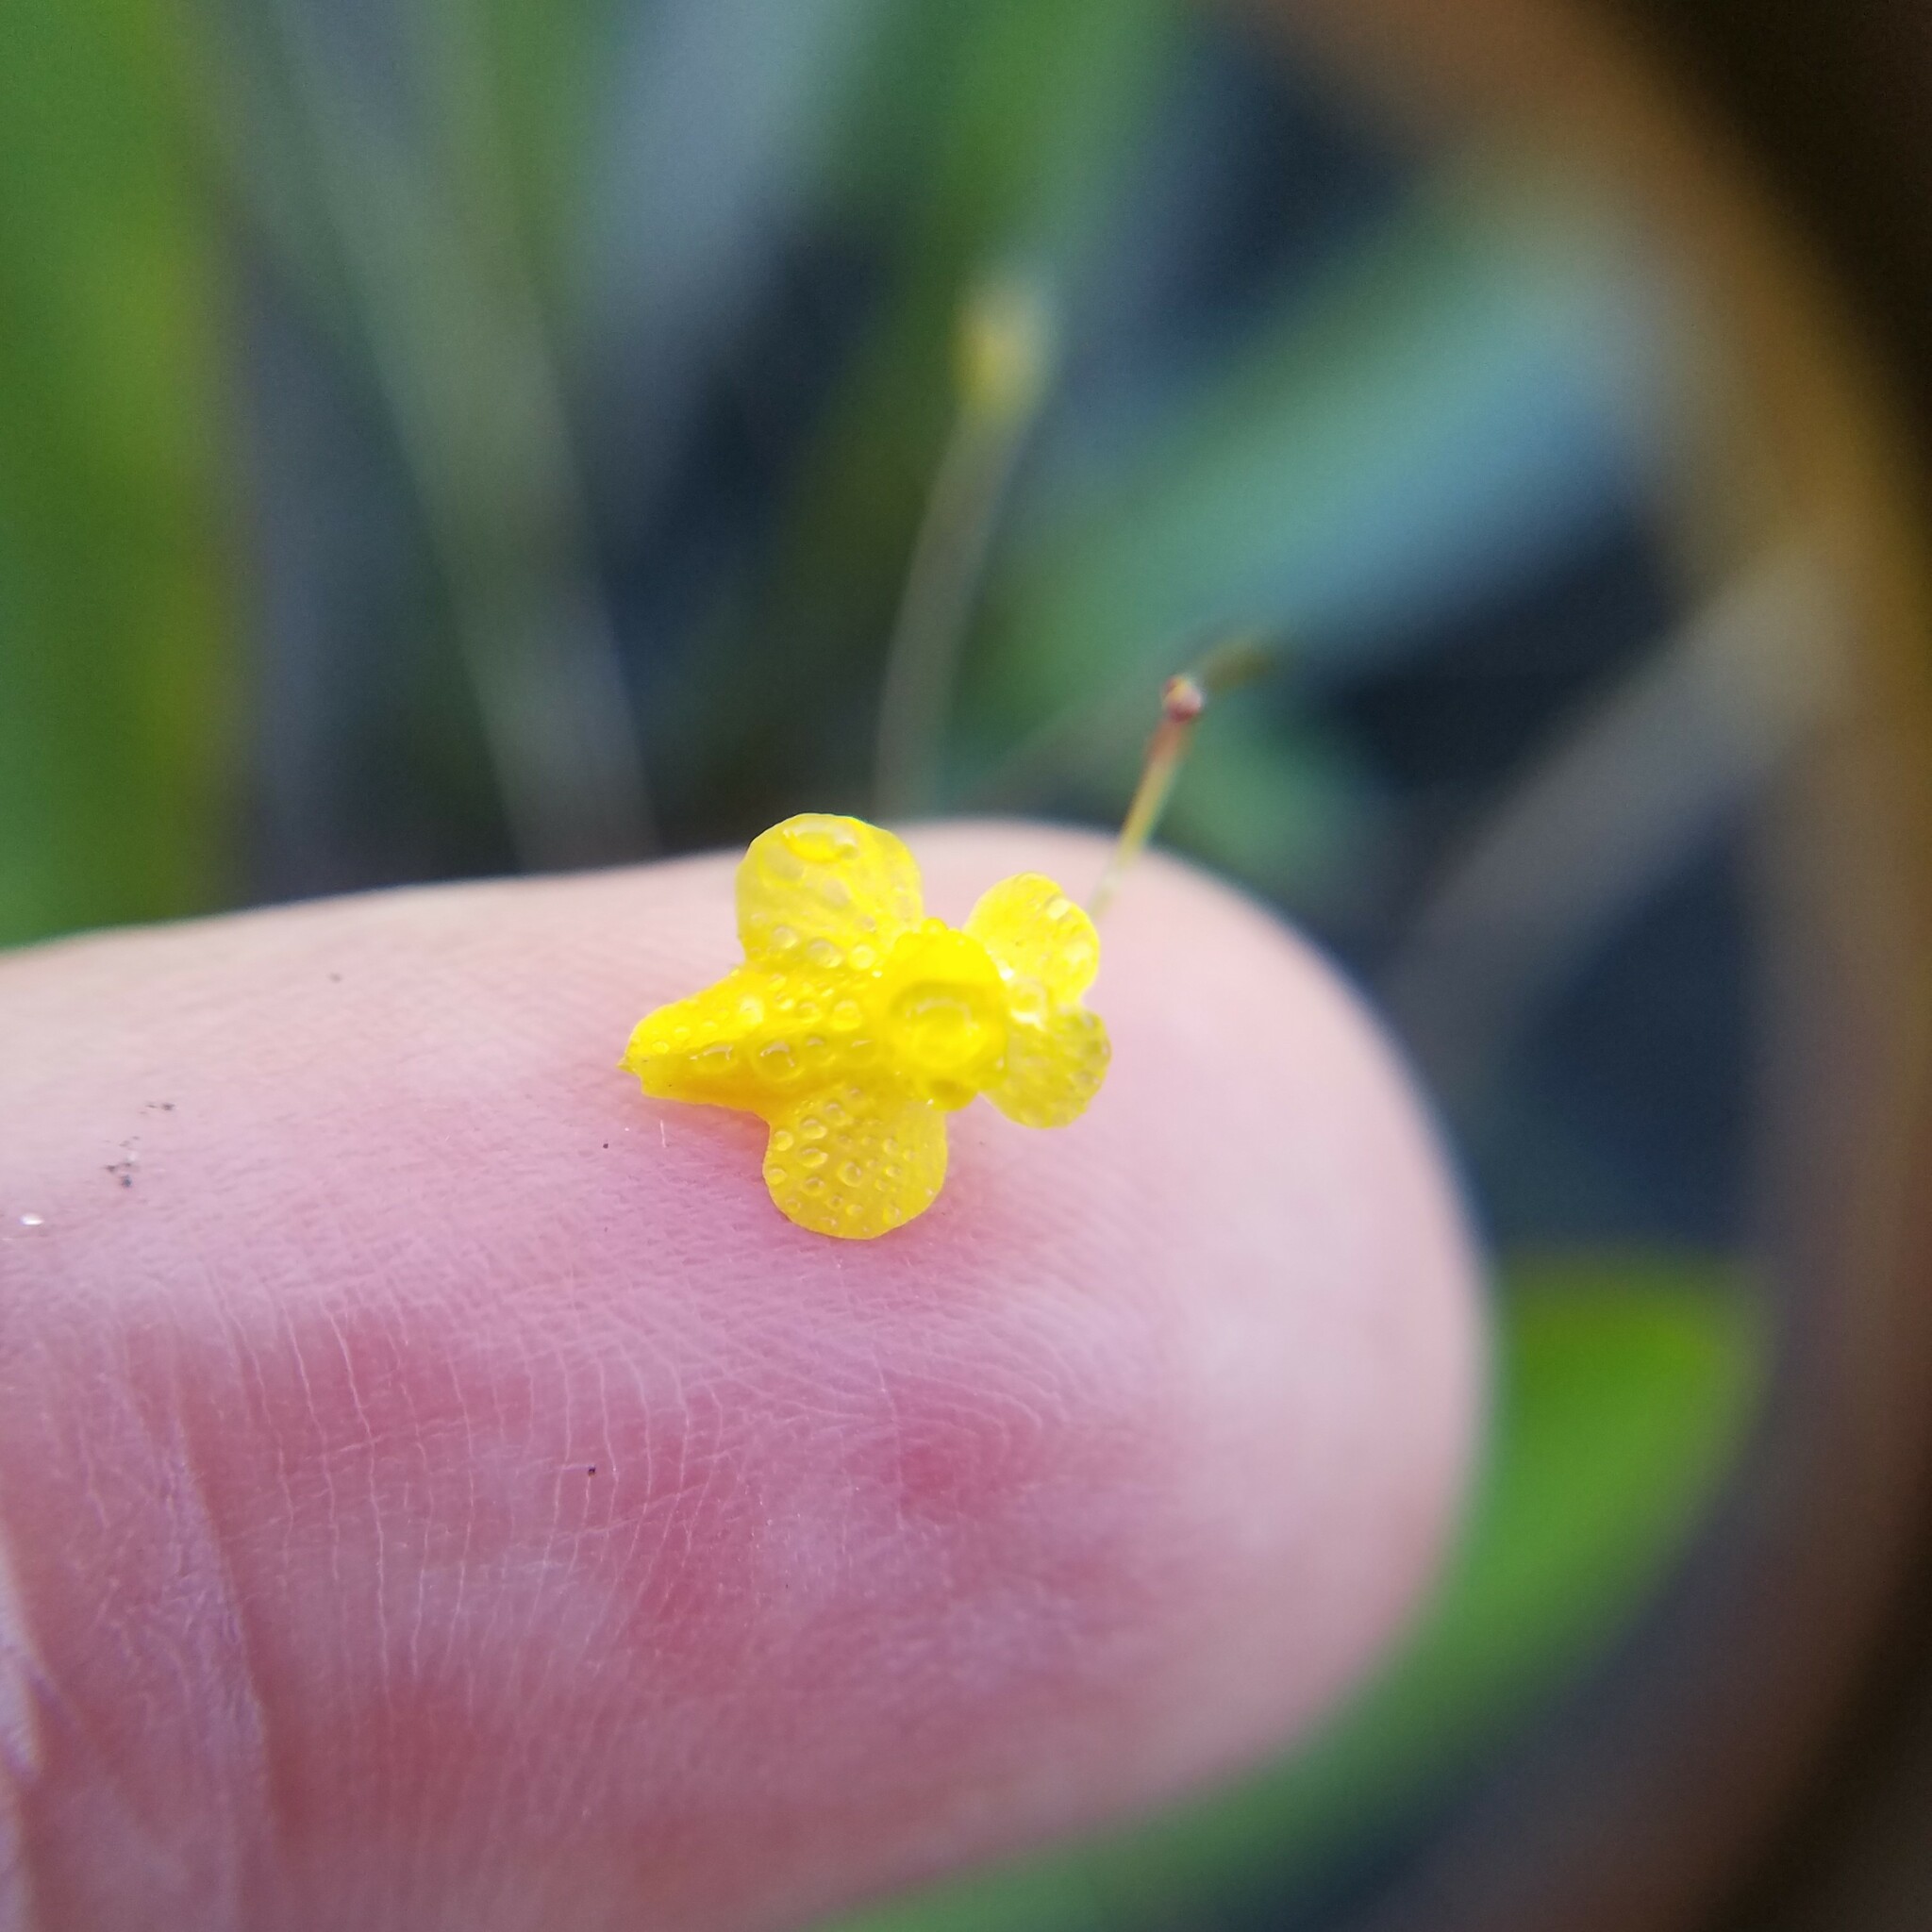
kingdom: Plantae
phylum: Tracheophyta
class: Magnoliopsida
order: Lamiales
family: Lentibulariaceae
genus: Utricularia
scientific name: Utricularia subulata
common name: Tiny bladderwort
